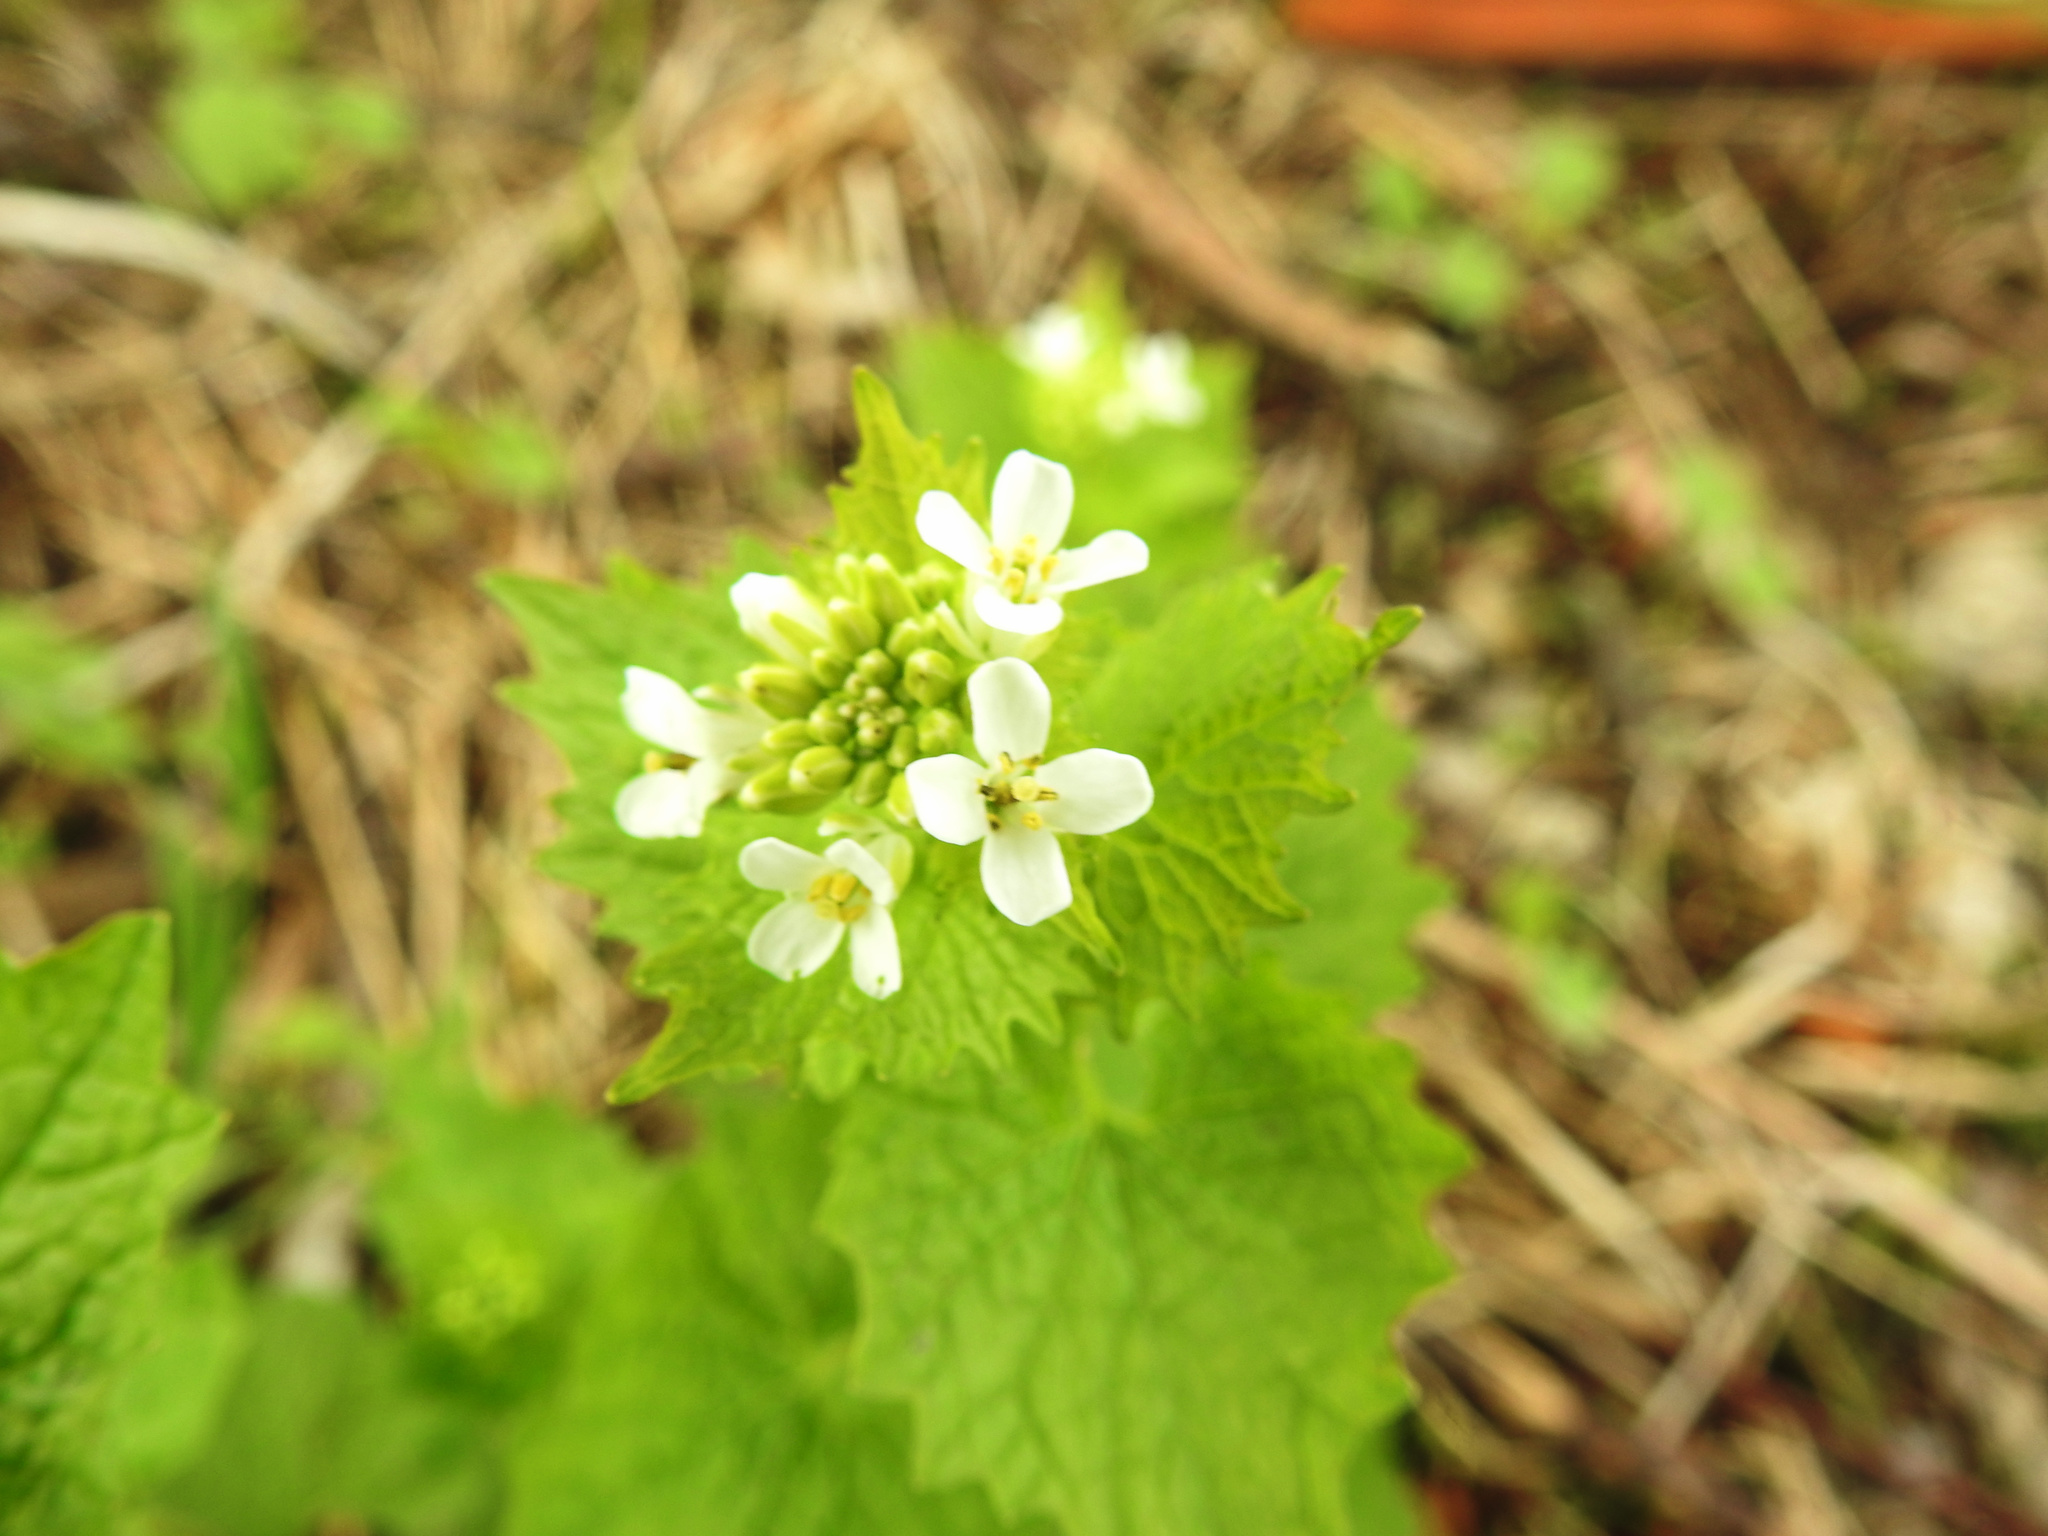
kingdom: Plantae
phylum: Tracheophyta
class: Magnoliopsida
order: Brassicales
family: Brassicaceae
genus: Alliaria
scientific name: Alliaria petiolata
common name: Garlic mustard
